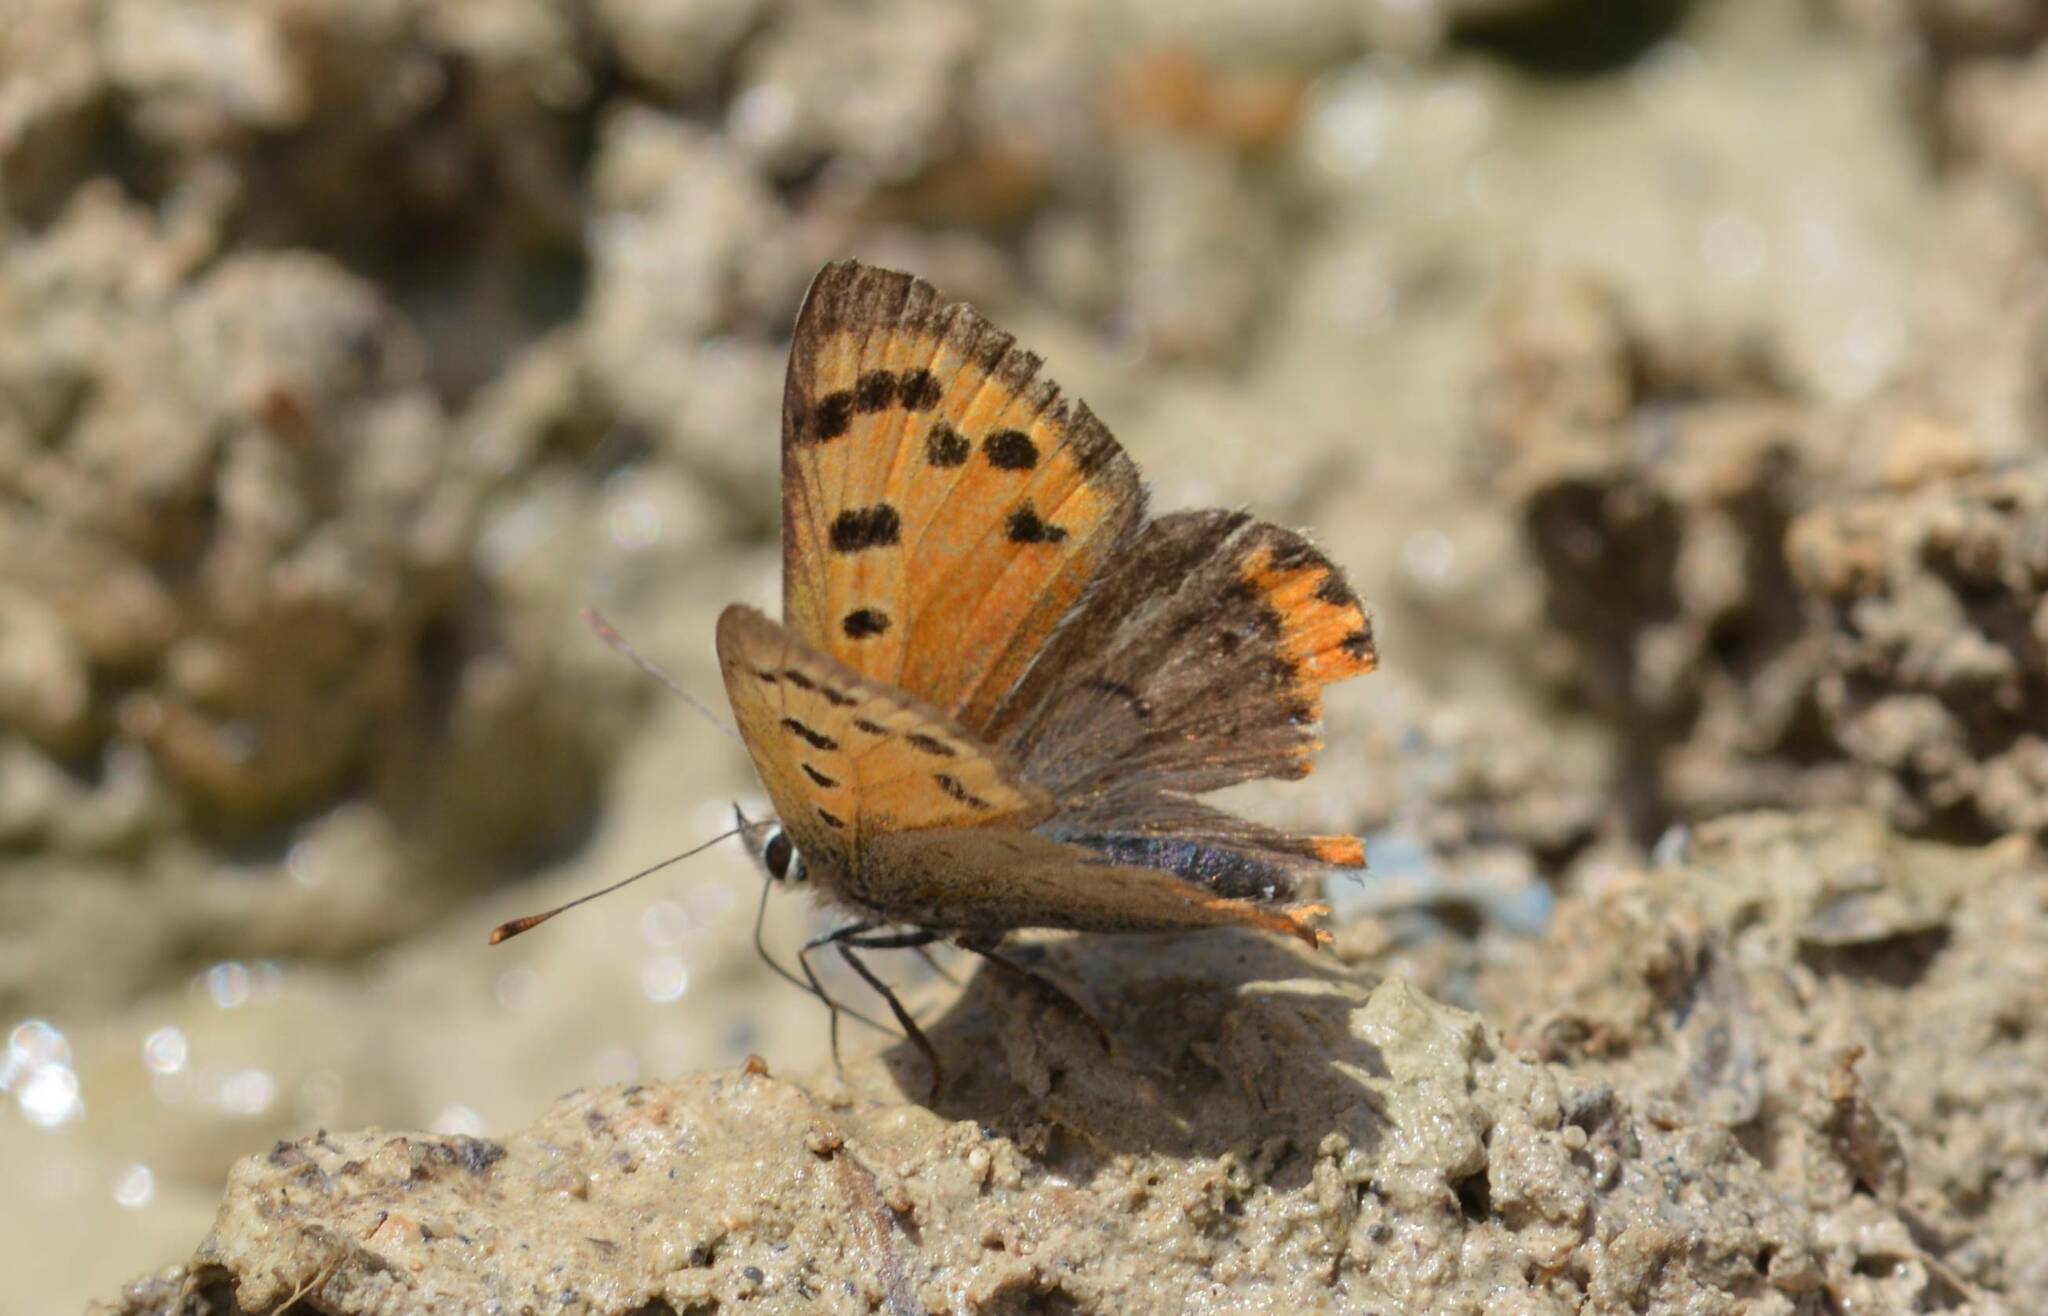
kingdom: Animalia
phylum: Arthropoda
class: Insecta
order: Lepidoptera
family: Lycaenidae
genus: Lycaena
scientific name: Lycaena phlaeas
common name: Small copper
